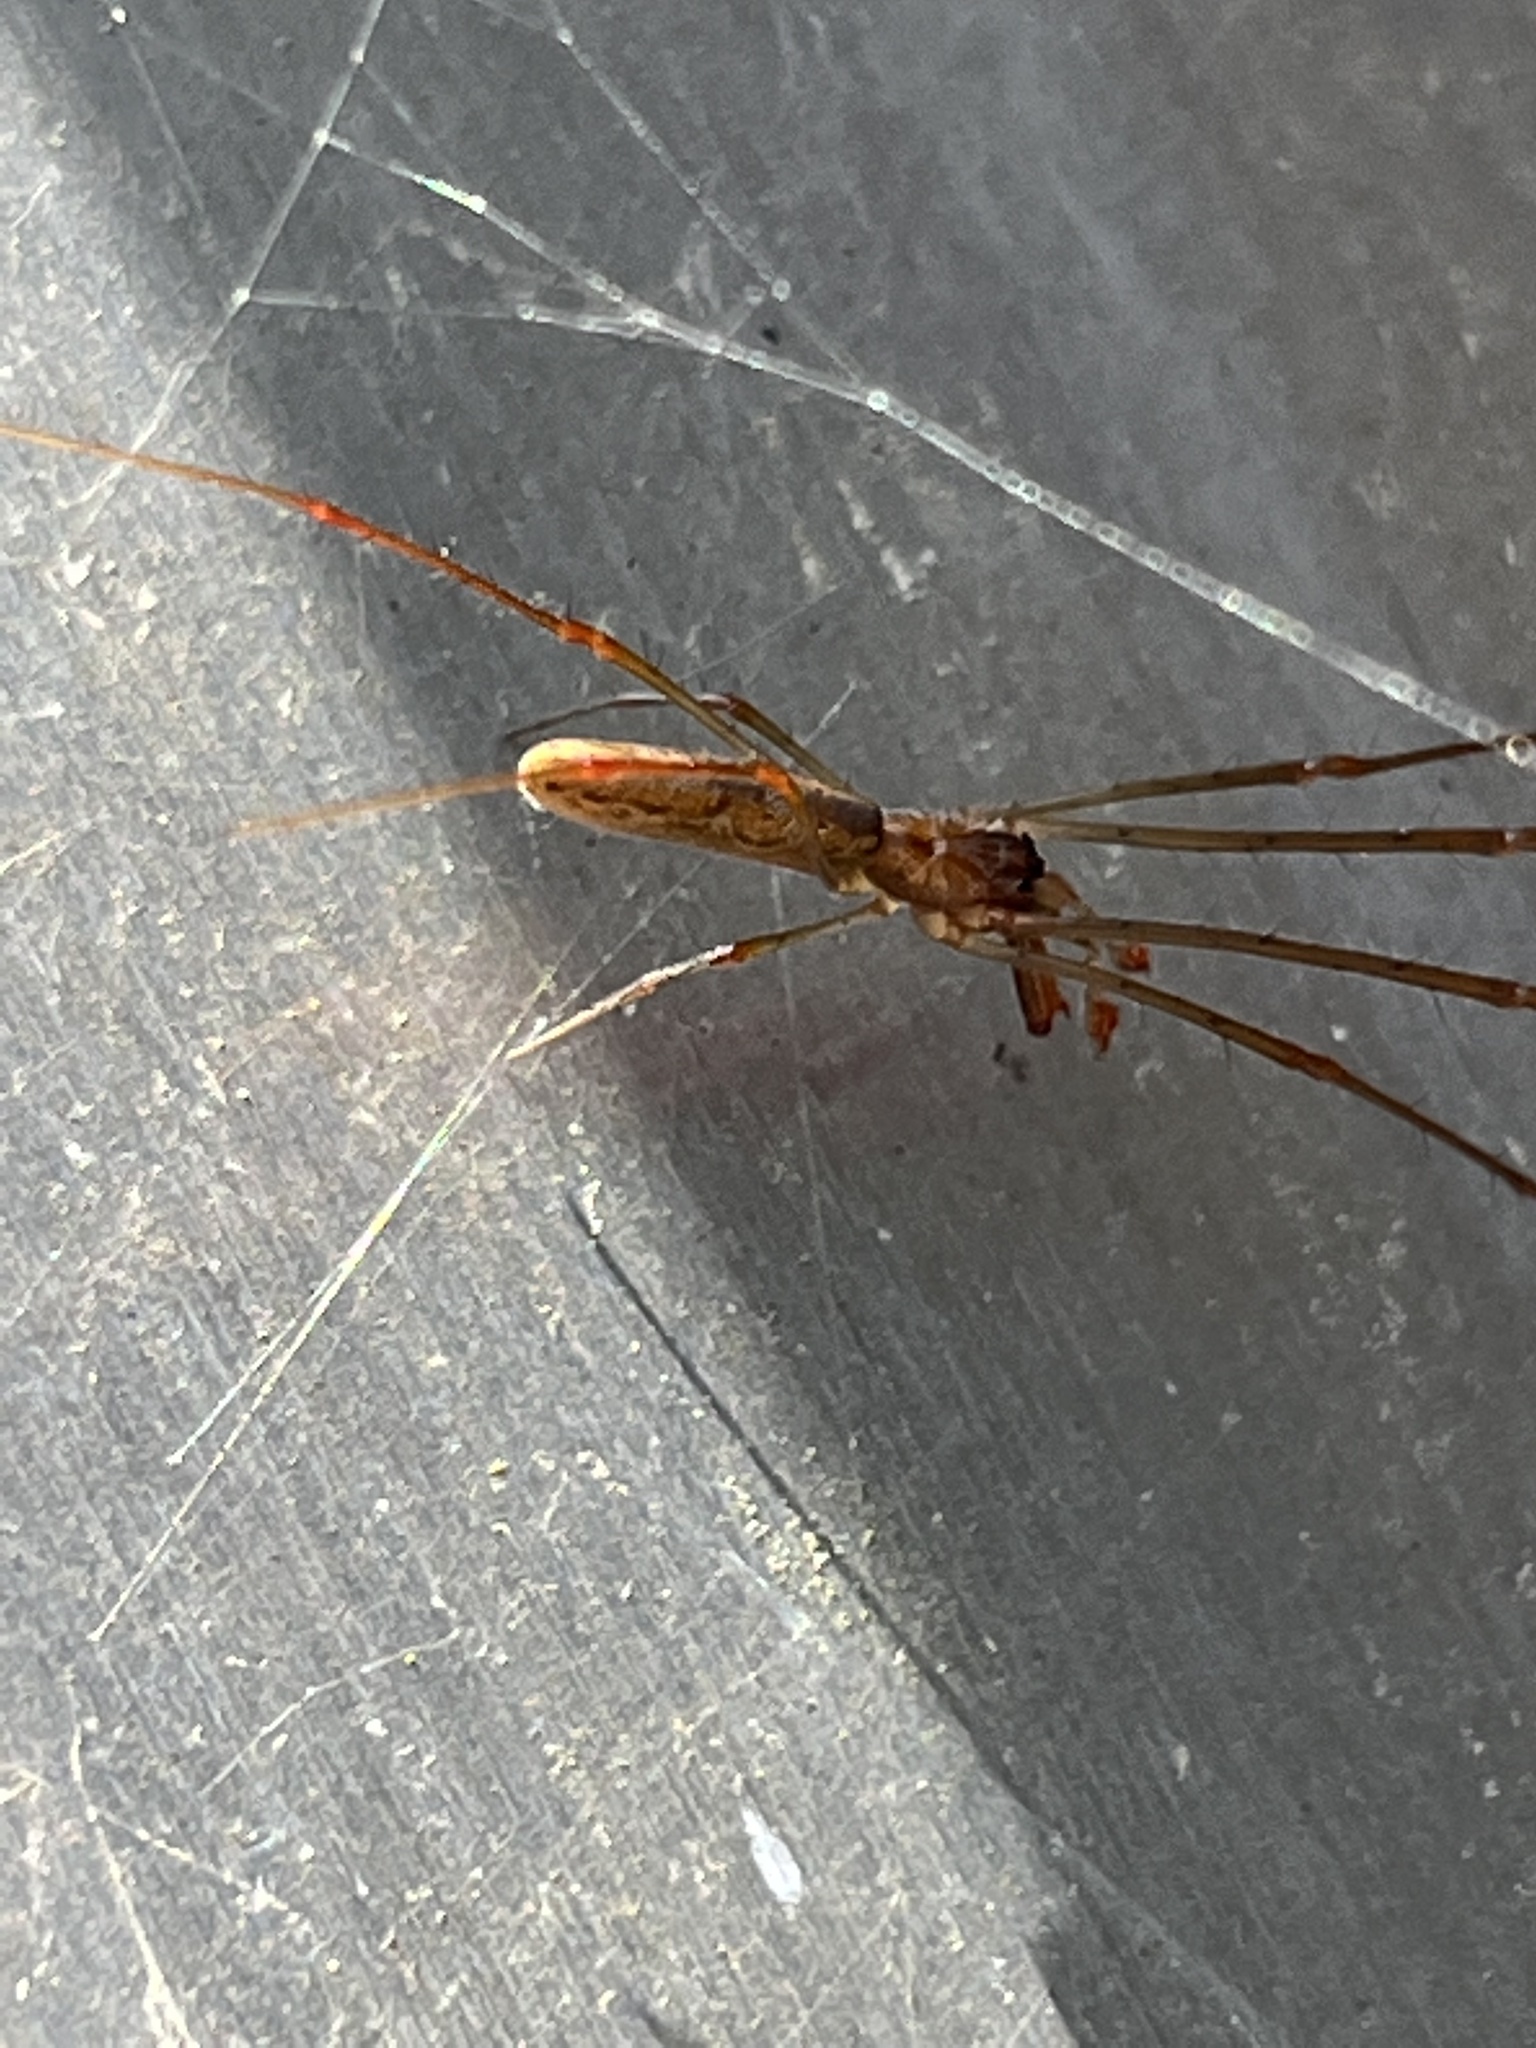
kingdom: Animalia
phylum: Arthropoda
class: Arachnida
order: Araneae
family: Tetragnathidae
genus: Tetragnatha
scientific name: Tetragnatha
